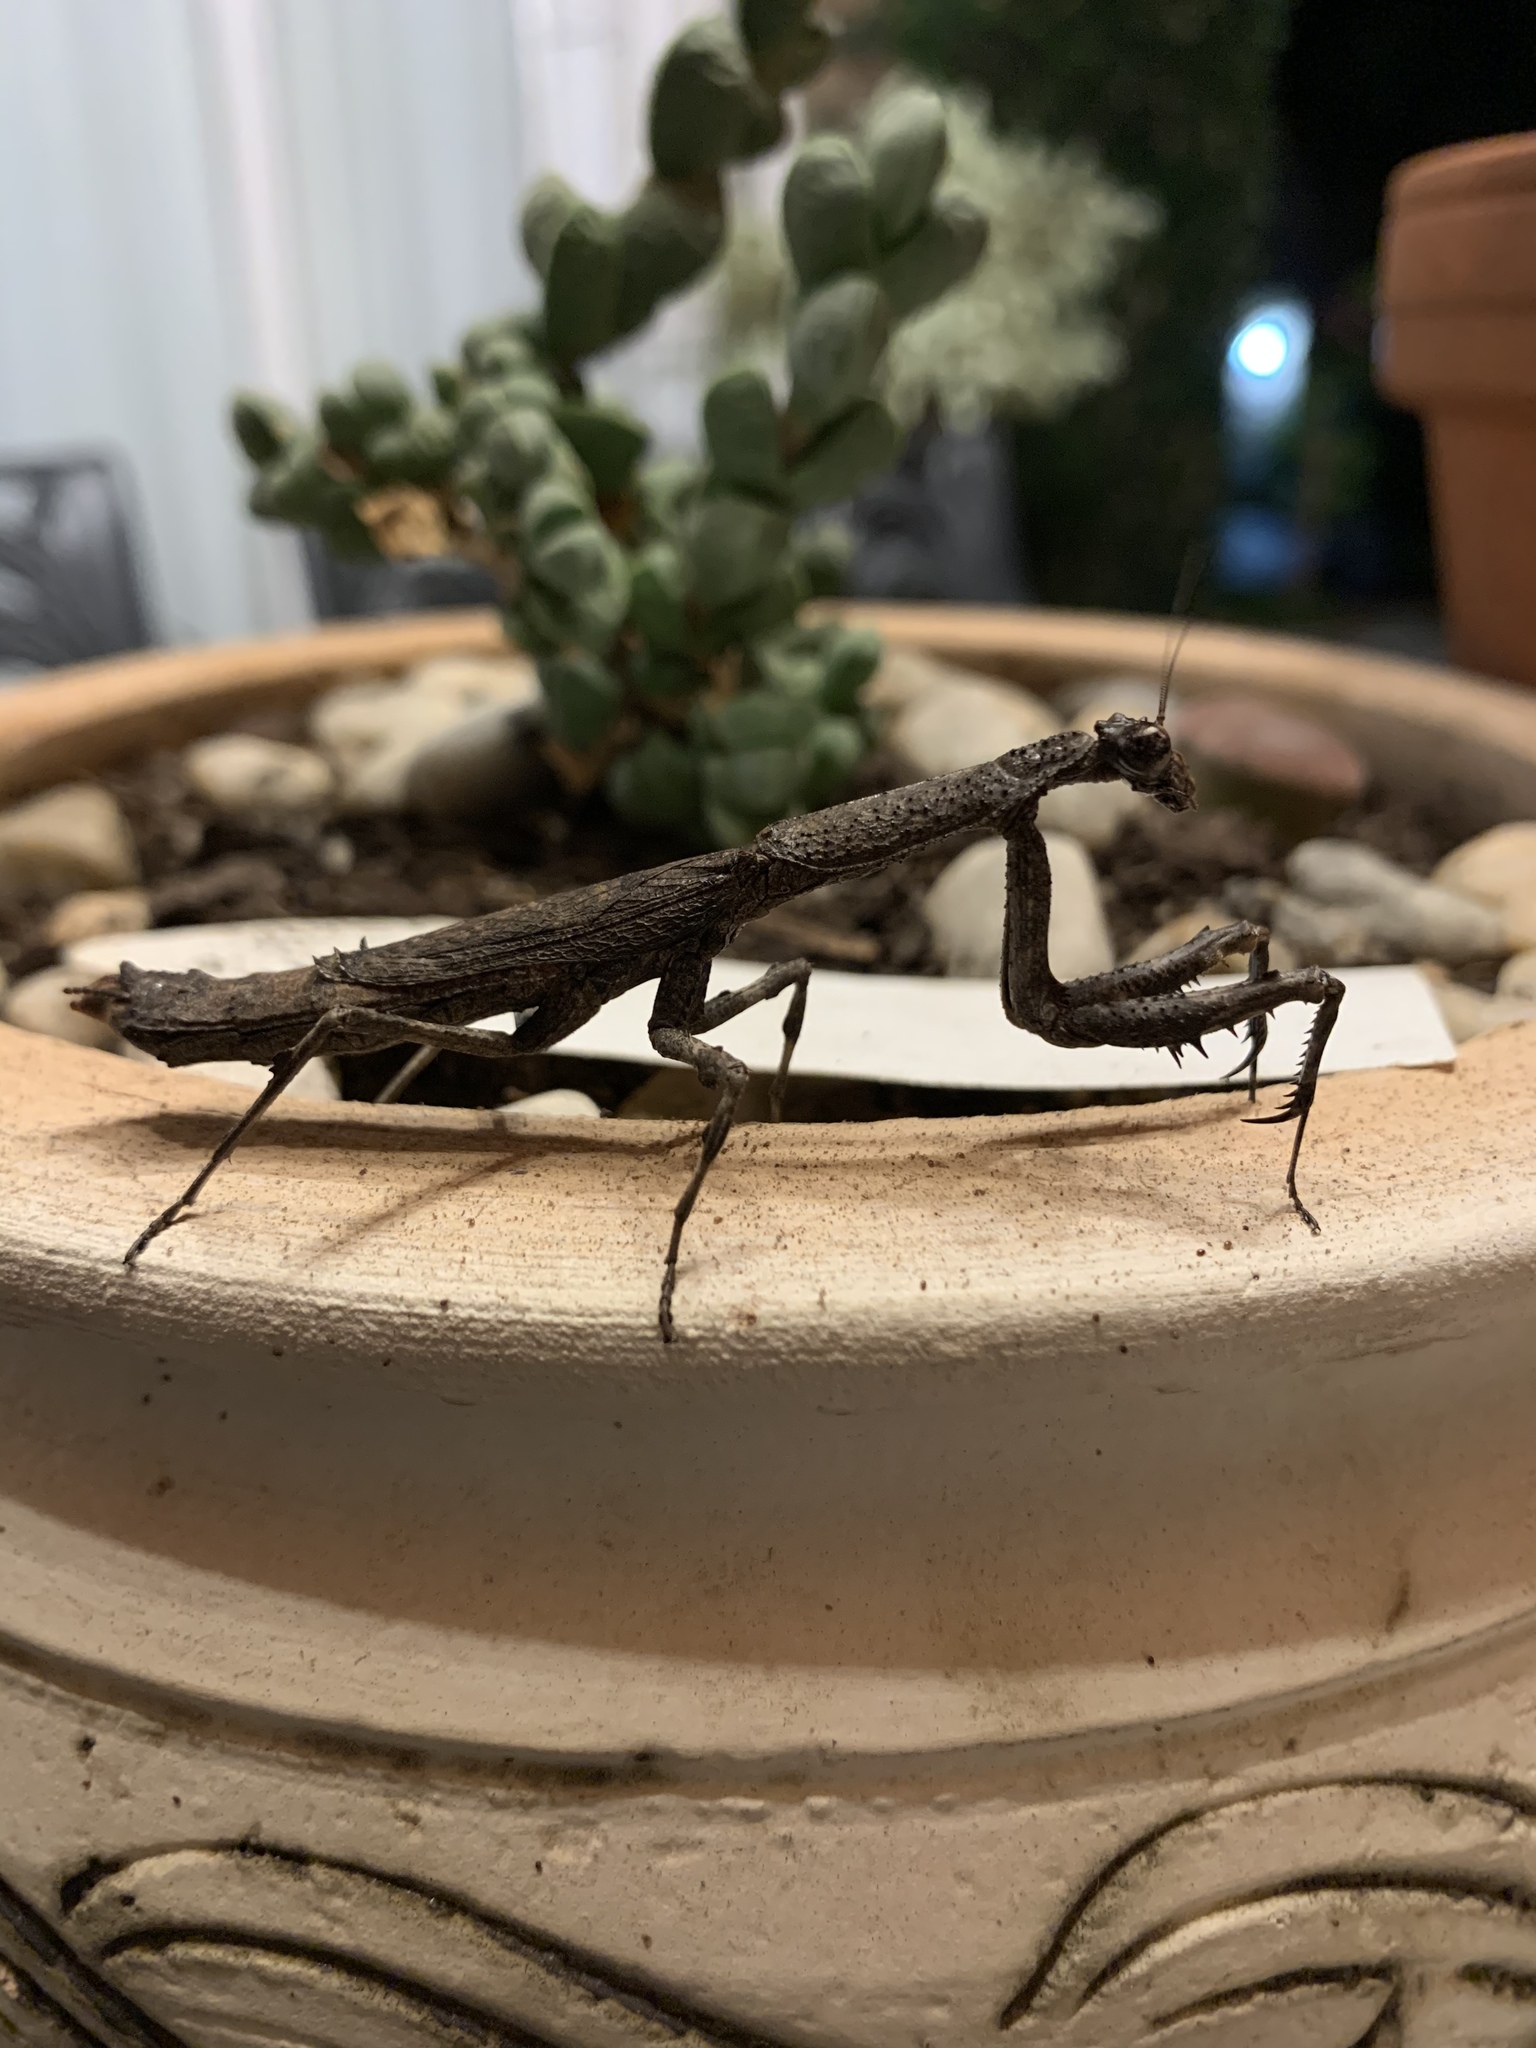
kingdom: Animalia
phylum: Arthropoda
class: Insecta
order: Mantodea
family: Deroplatyidae
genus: Popa
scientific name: Popa spurca
